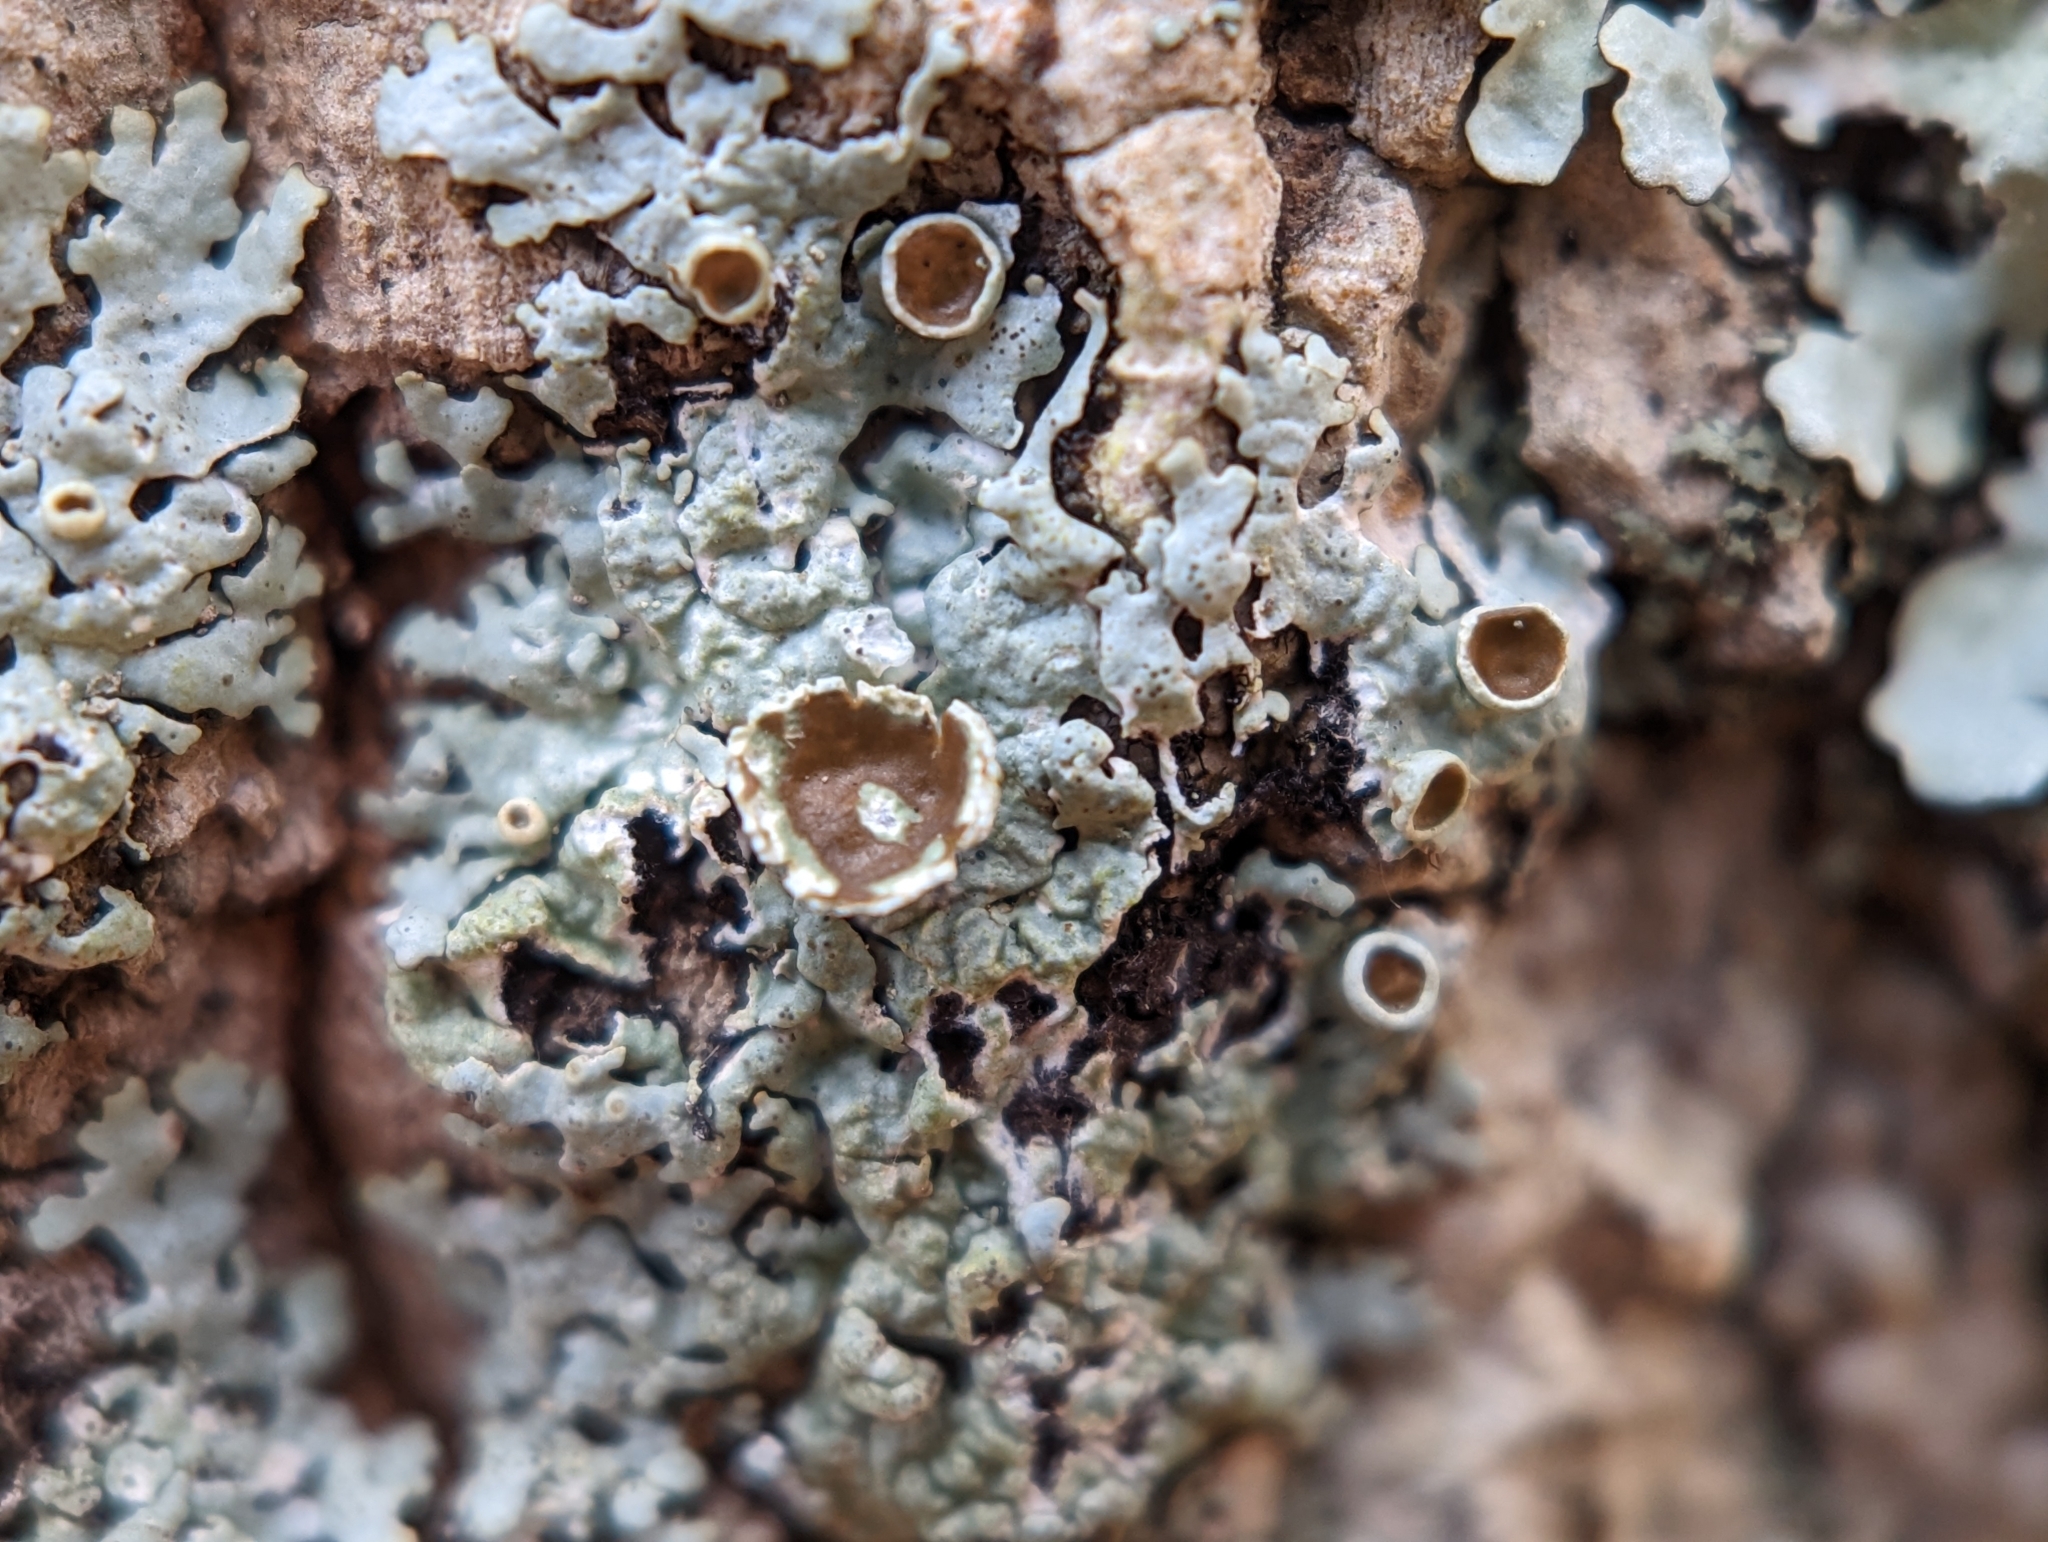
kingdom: Fungi
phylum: Ascomycota
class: Lecanoromycetes
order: Lecanorales
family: Parmeliaceae
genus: Hypotrachyna
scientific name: Hypotrachyna livida
